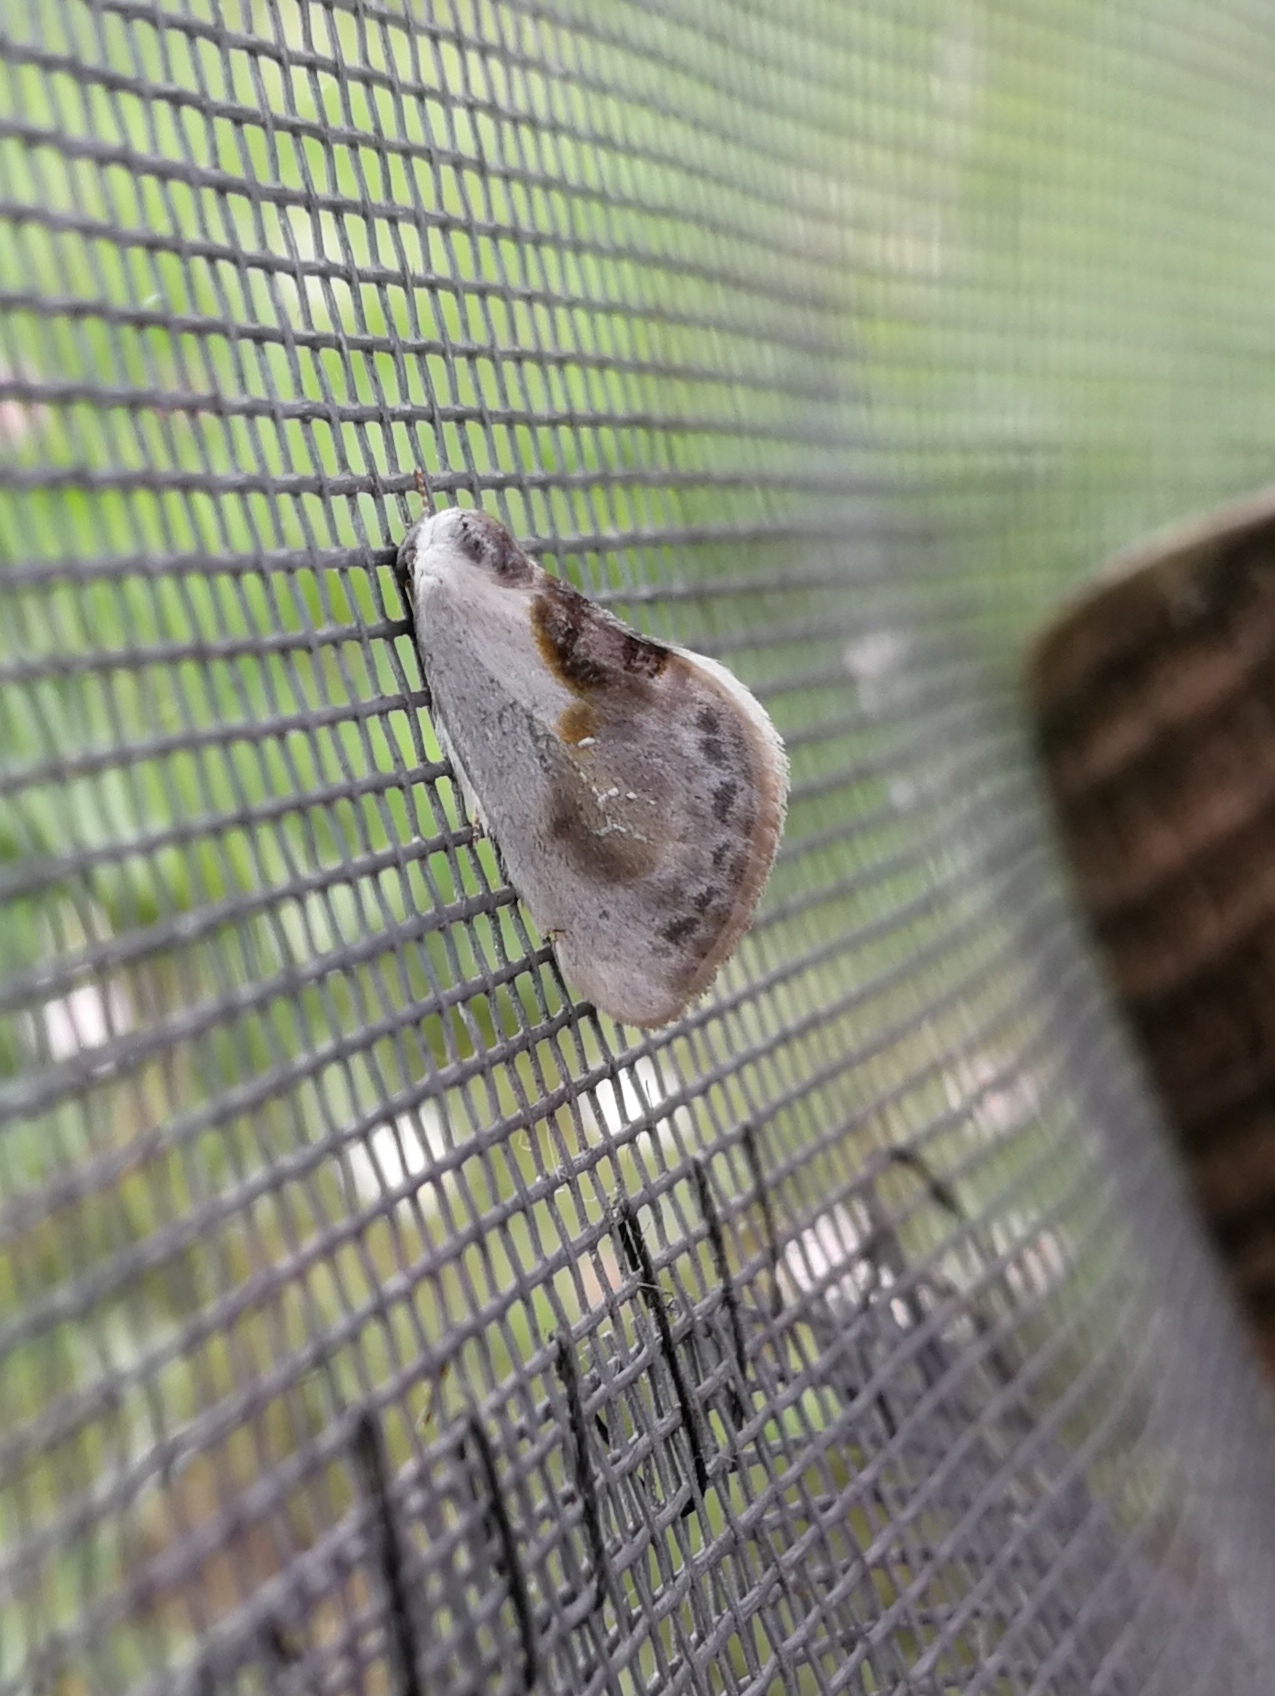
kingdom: Animalia
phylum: Arthropoda
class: Insecta
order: Lepidoptera
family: Drepanidae
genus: Cilix
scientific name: Cilix glaucata
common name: Chinese character
